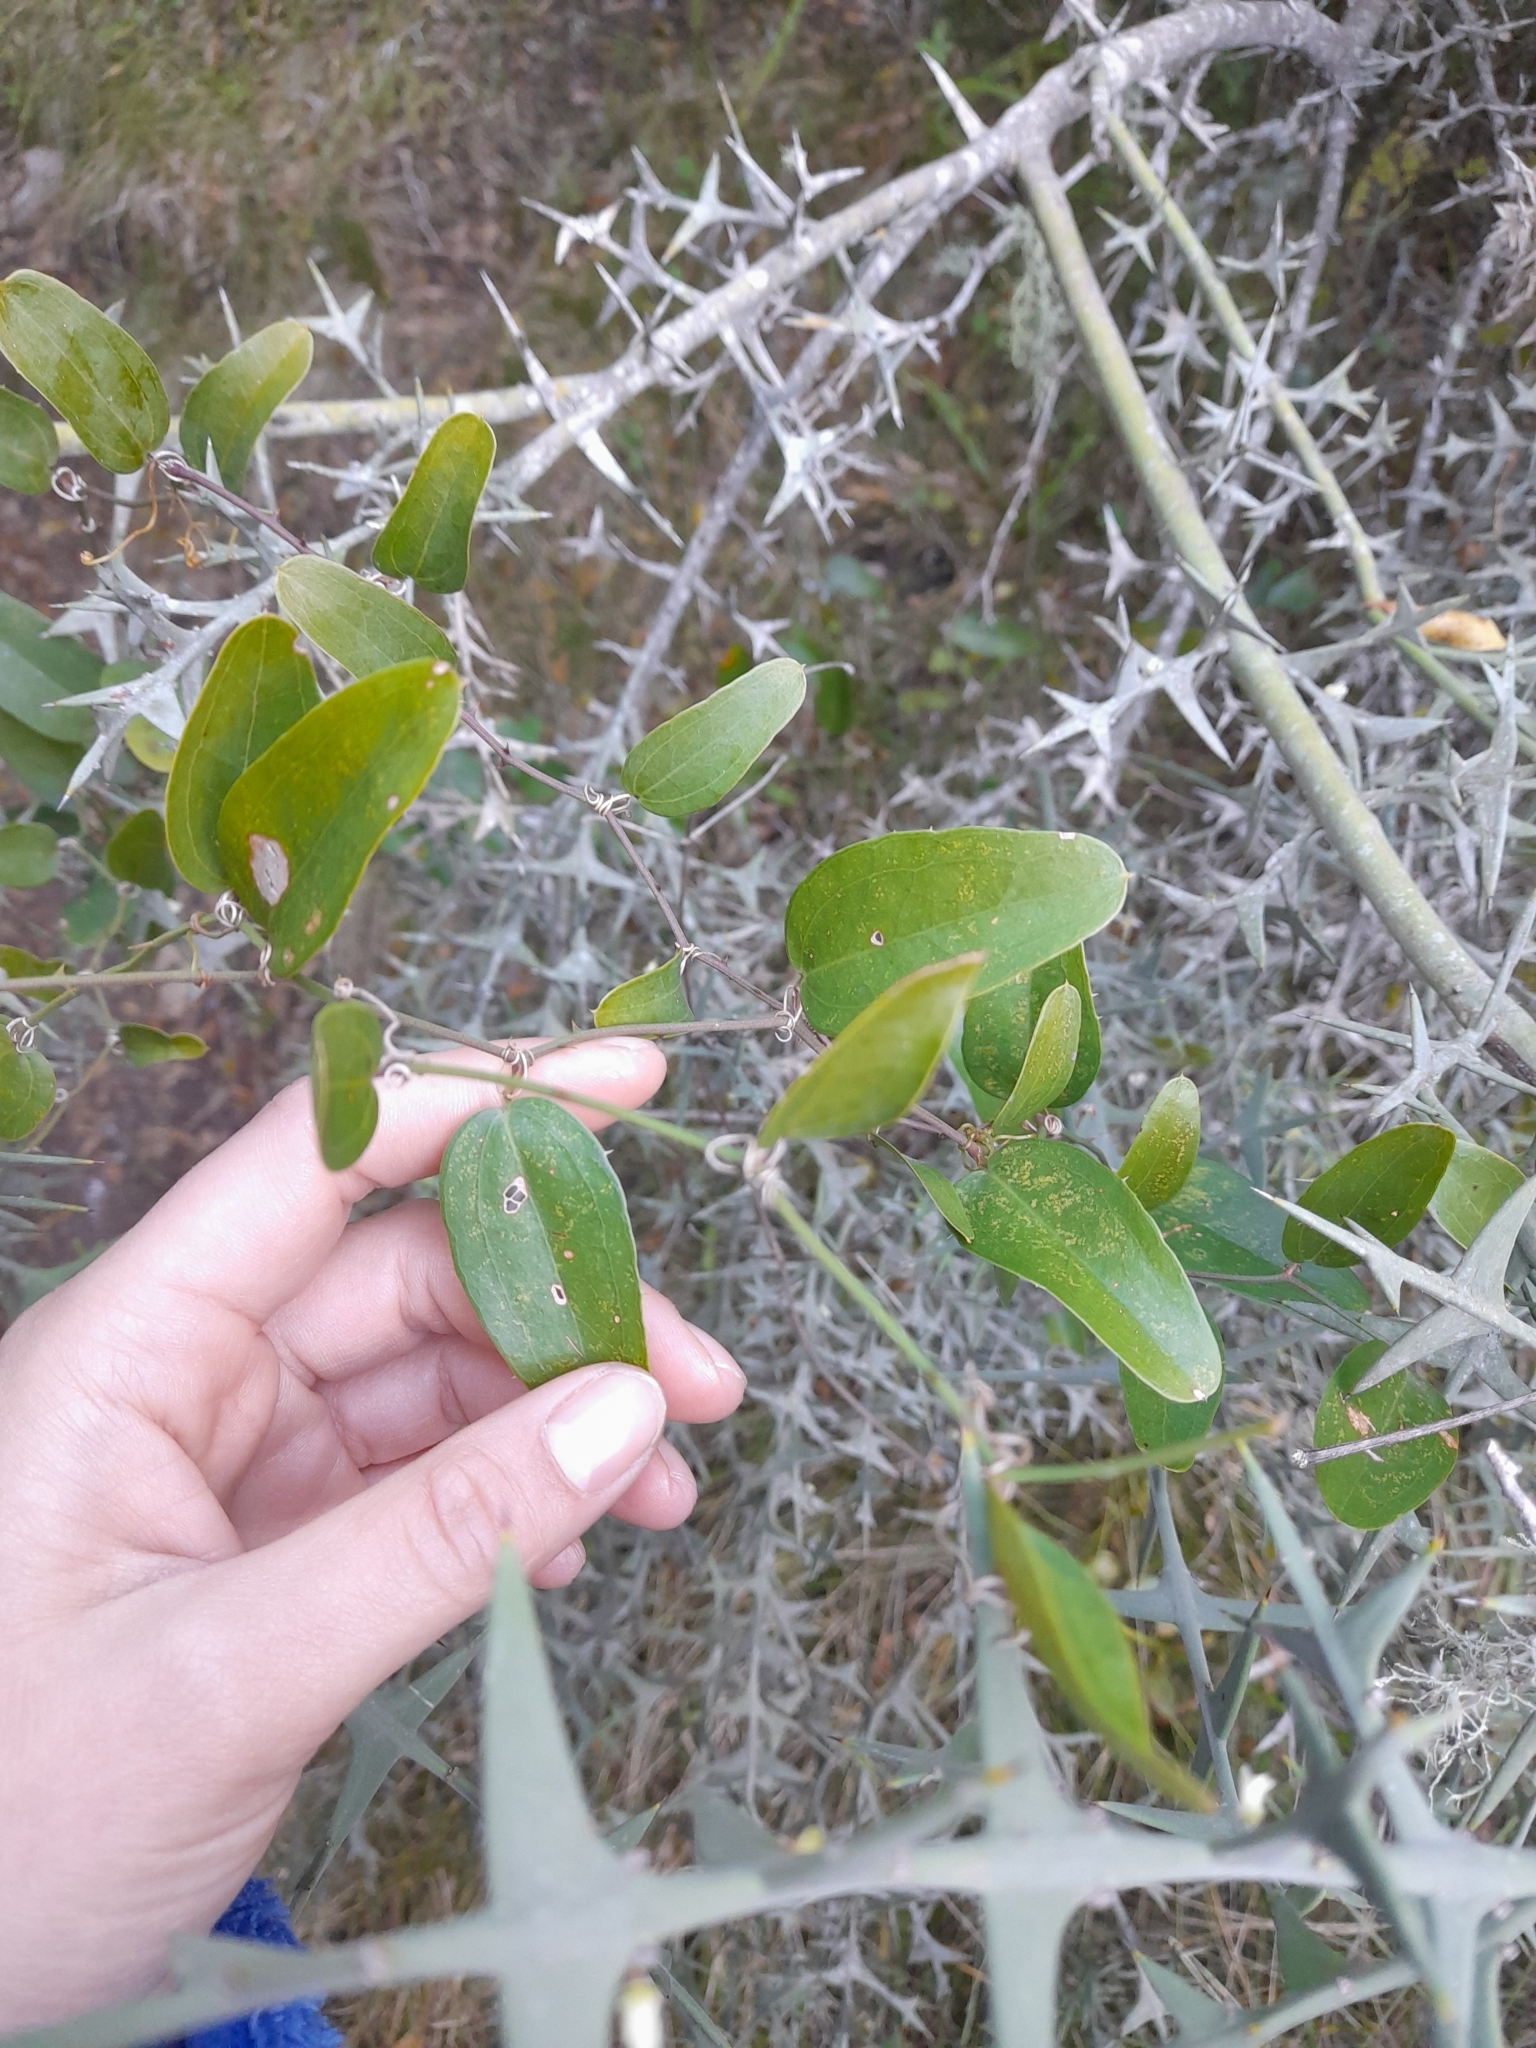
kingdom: Plantae
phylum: Tracheophyta
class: Liliopsida
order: Liliales
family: Smilacaceae
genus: Smilax
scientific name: Smilax campestris
